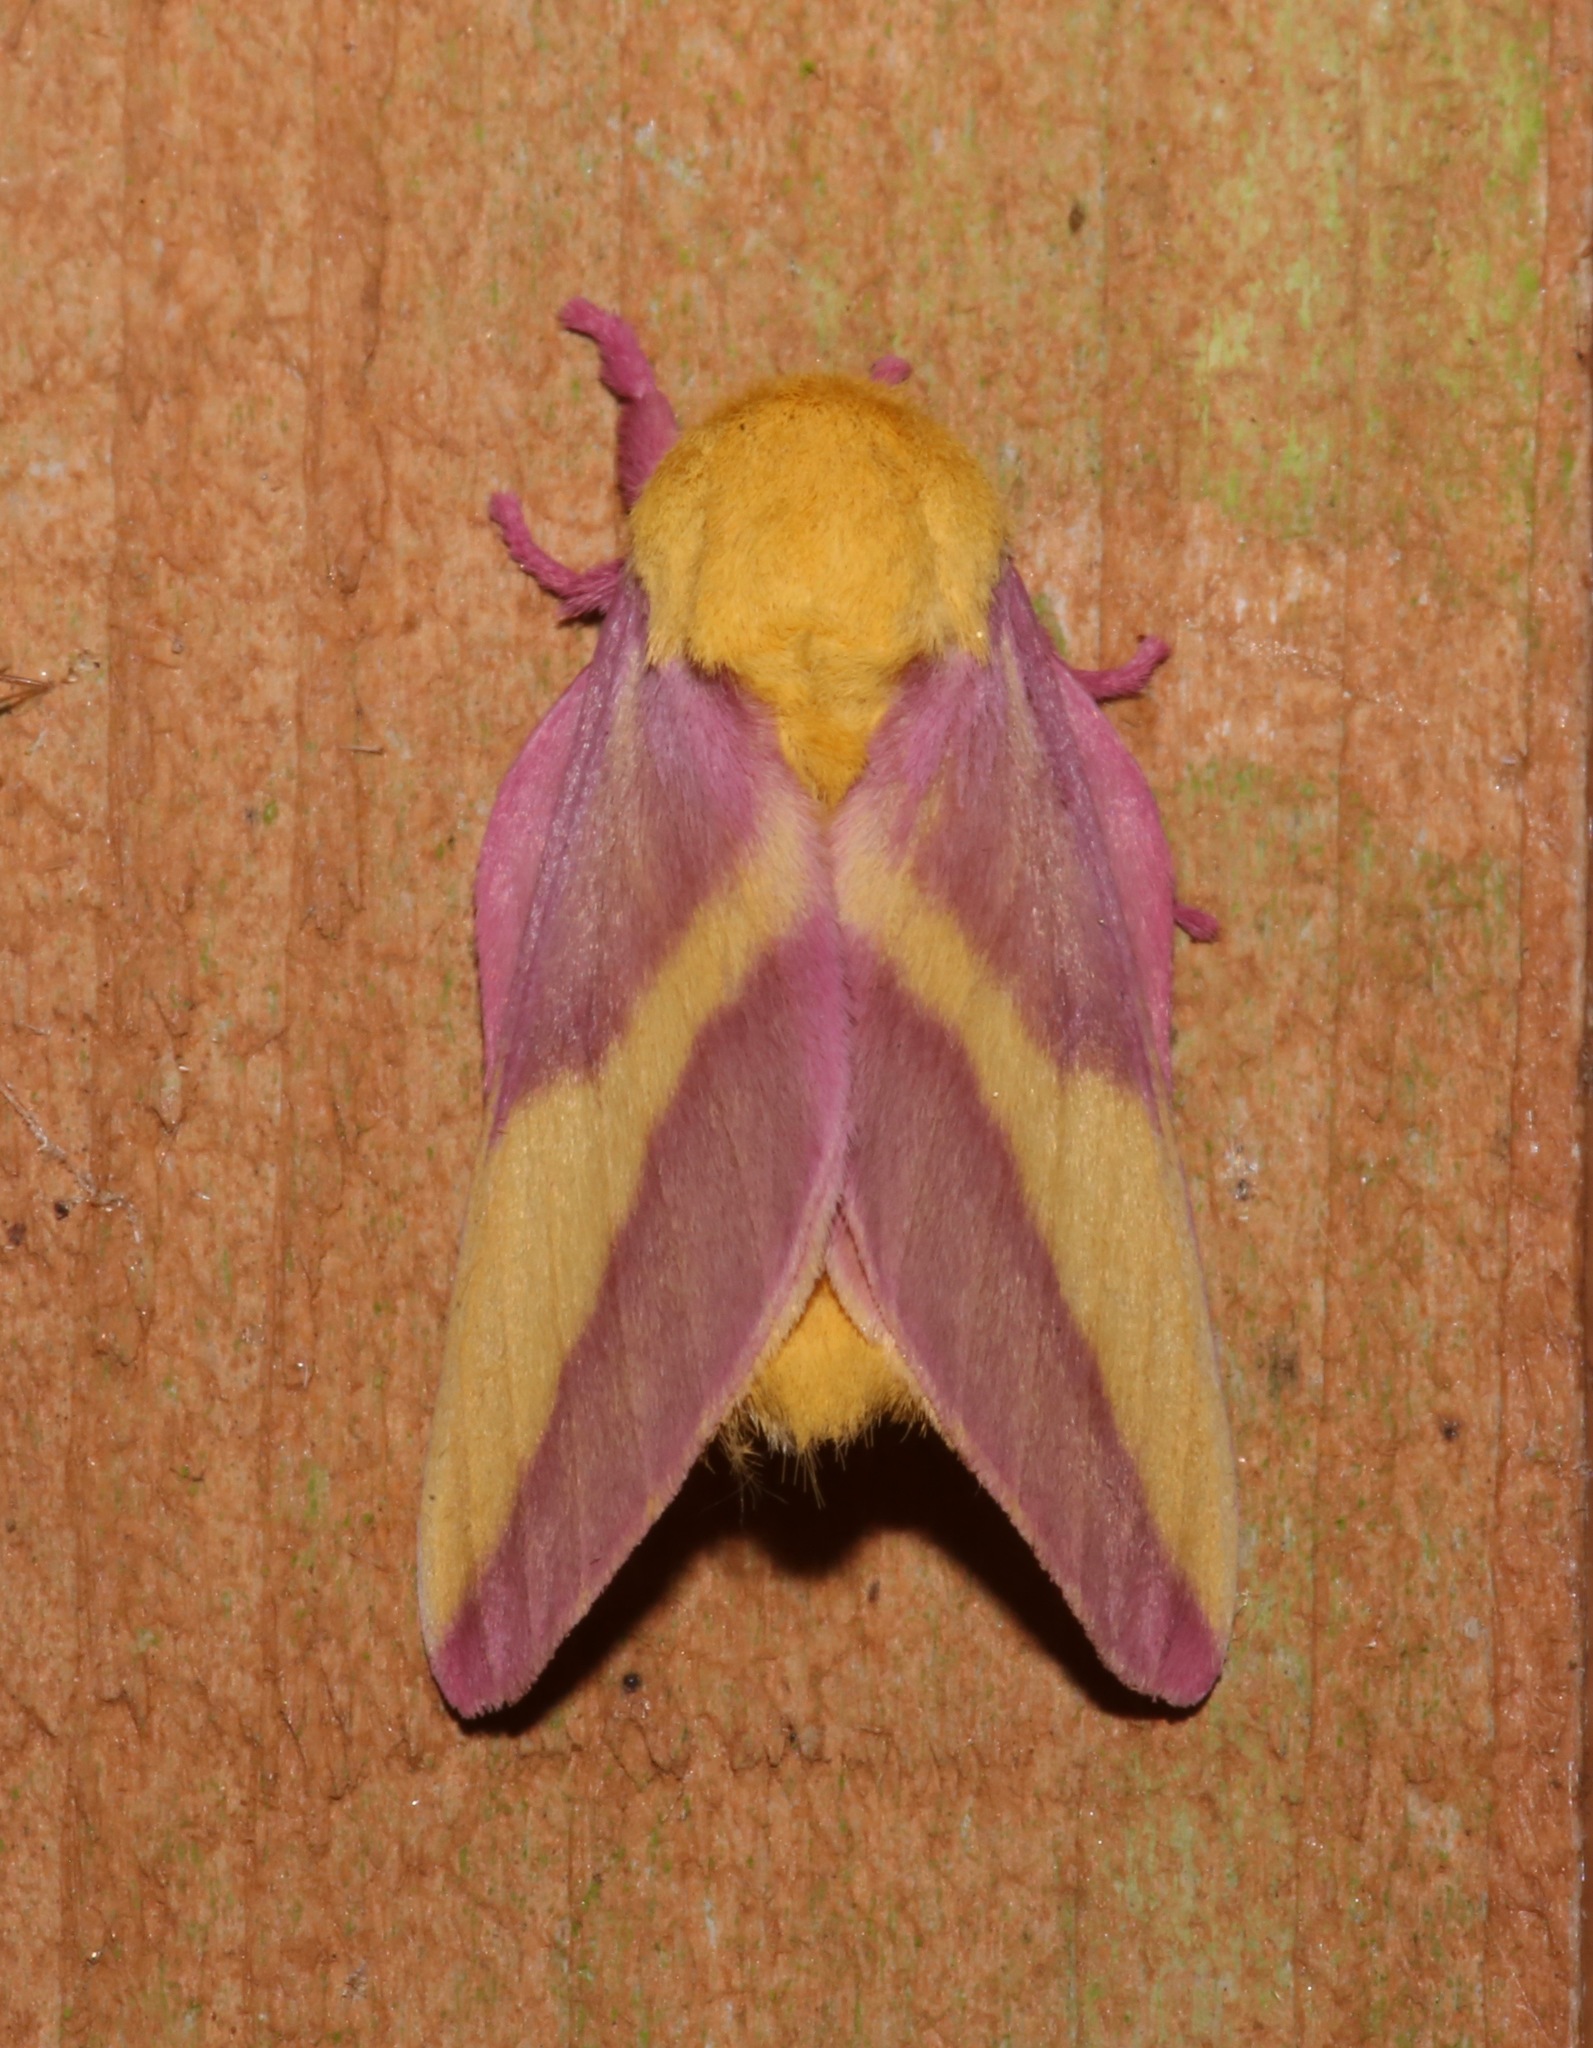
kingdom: Animalia
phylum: Arthropoda
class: Insecta
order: Lepidoptera
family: Saturniidae
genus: Dryocampa
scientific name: Dryocampa rubicunda
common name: Rosy maple moth
